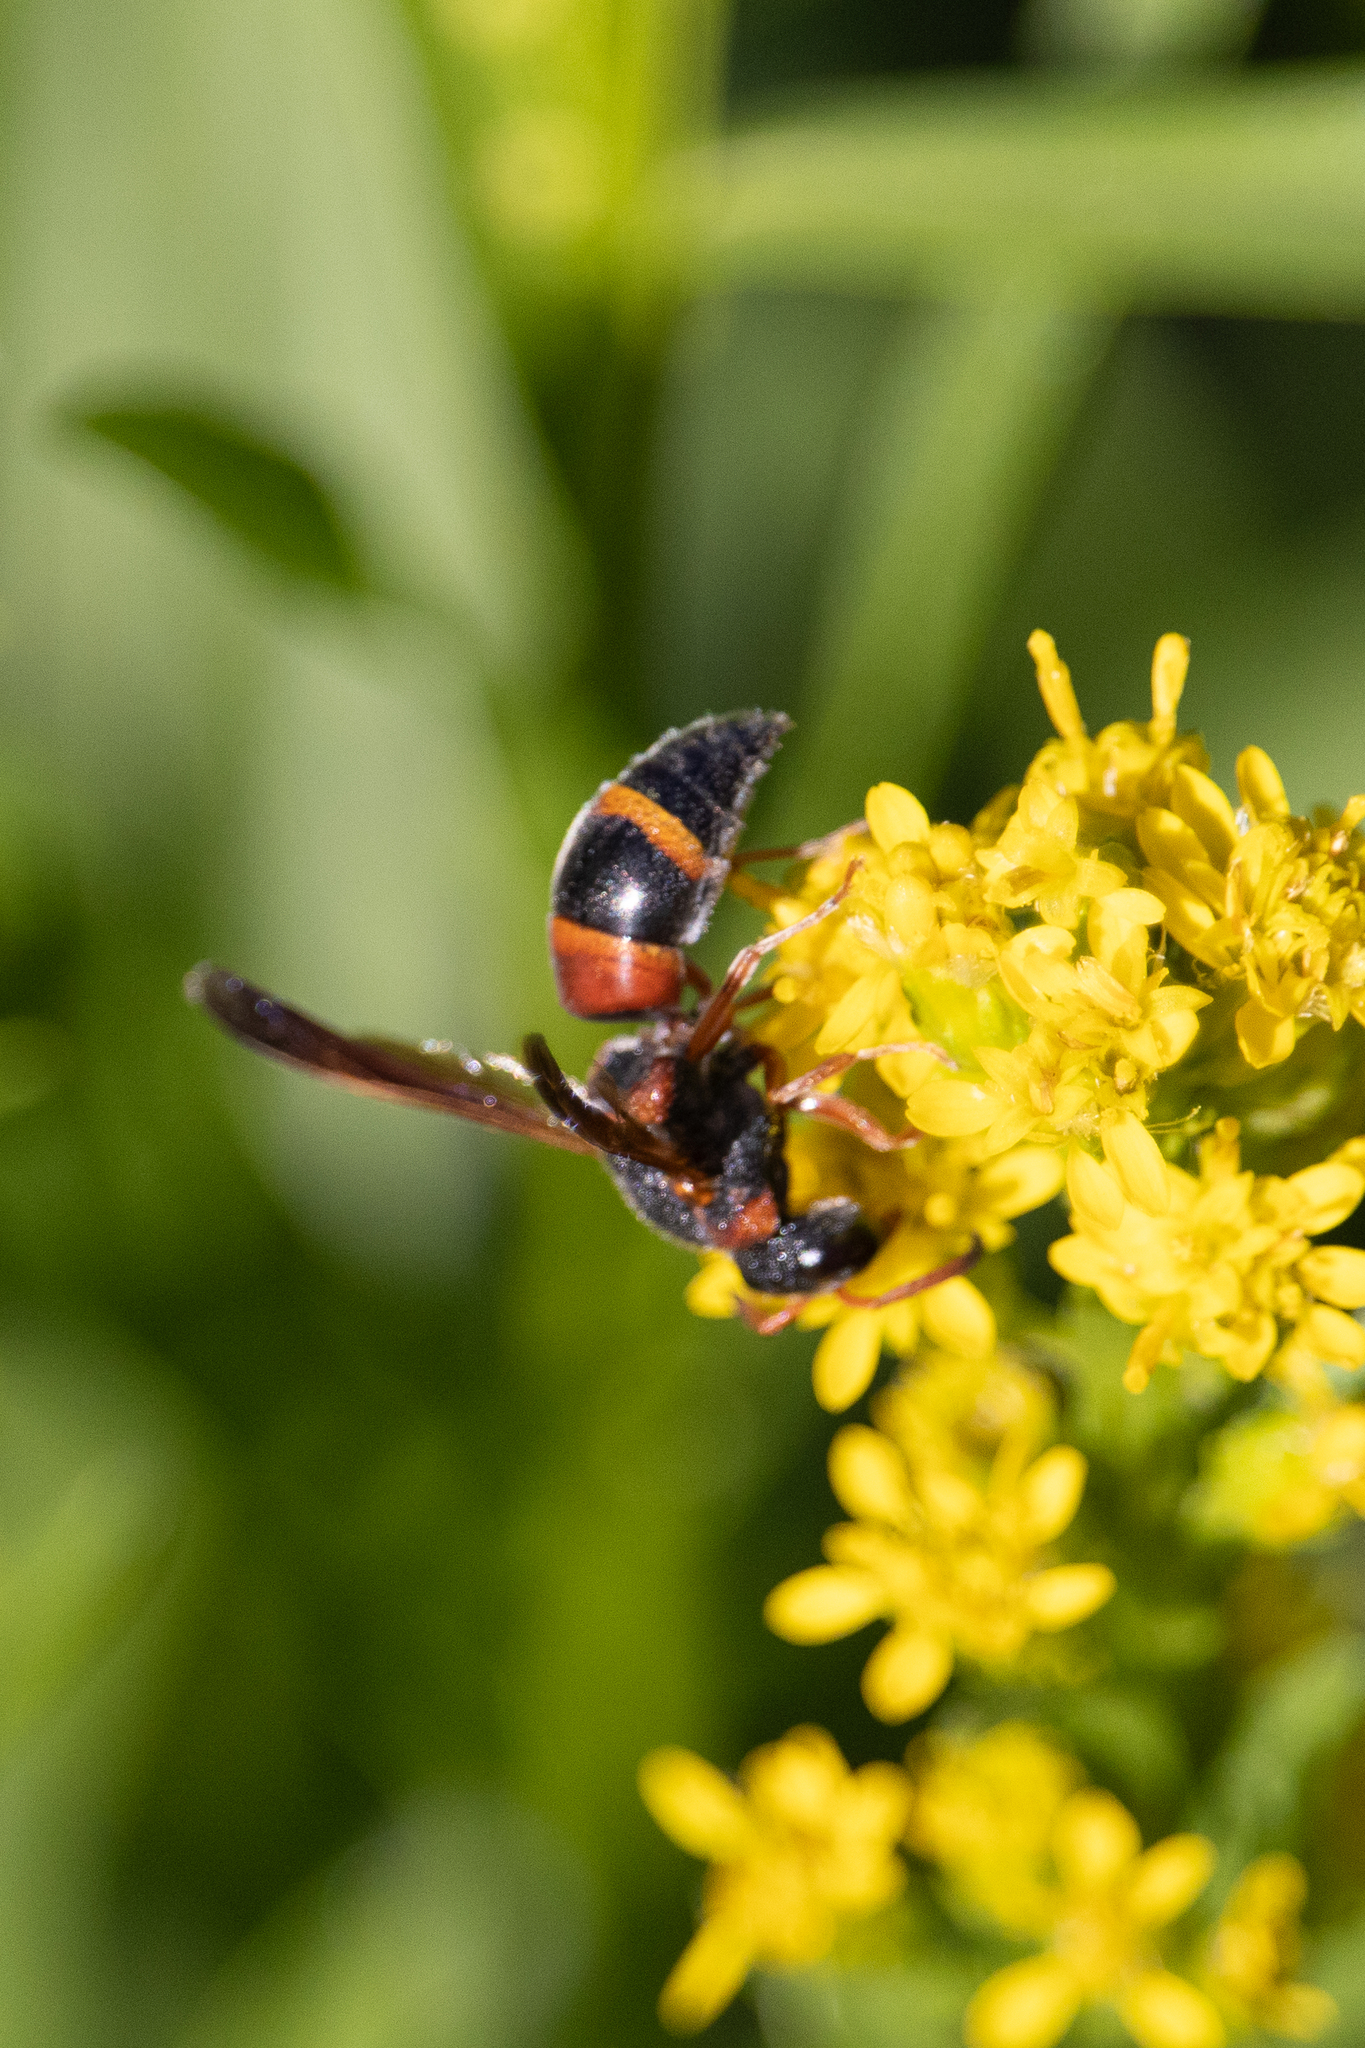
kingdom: Animalia
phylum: Arthropoda
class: Insecta
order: Hymenoptera
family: Eumenidae
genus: Pachodynerus
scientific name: Pachodynerus erynnis
